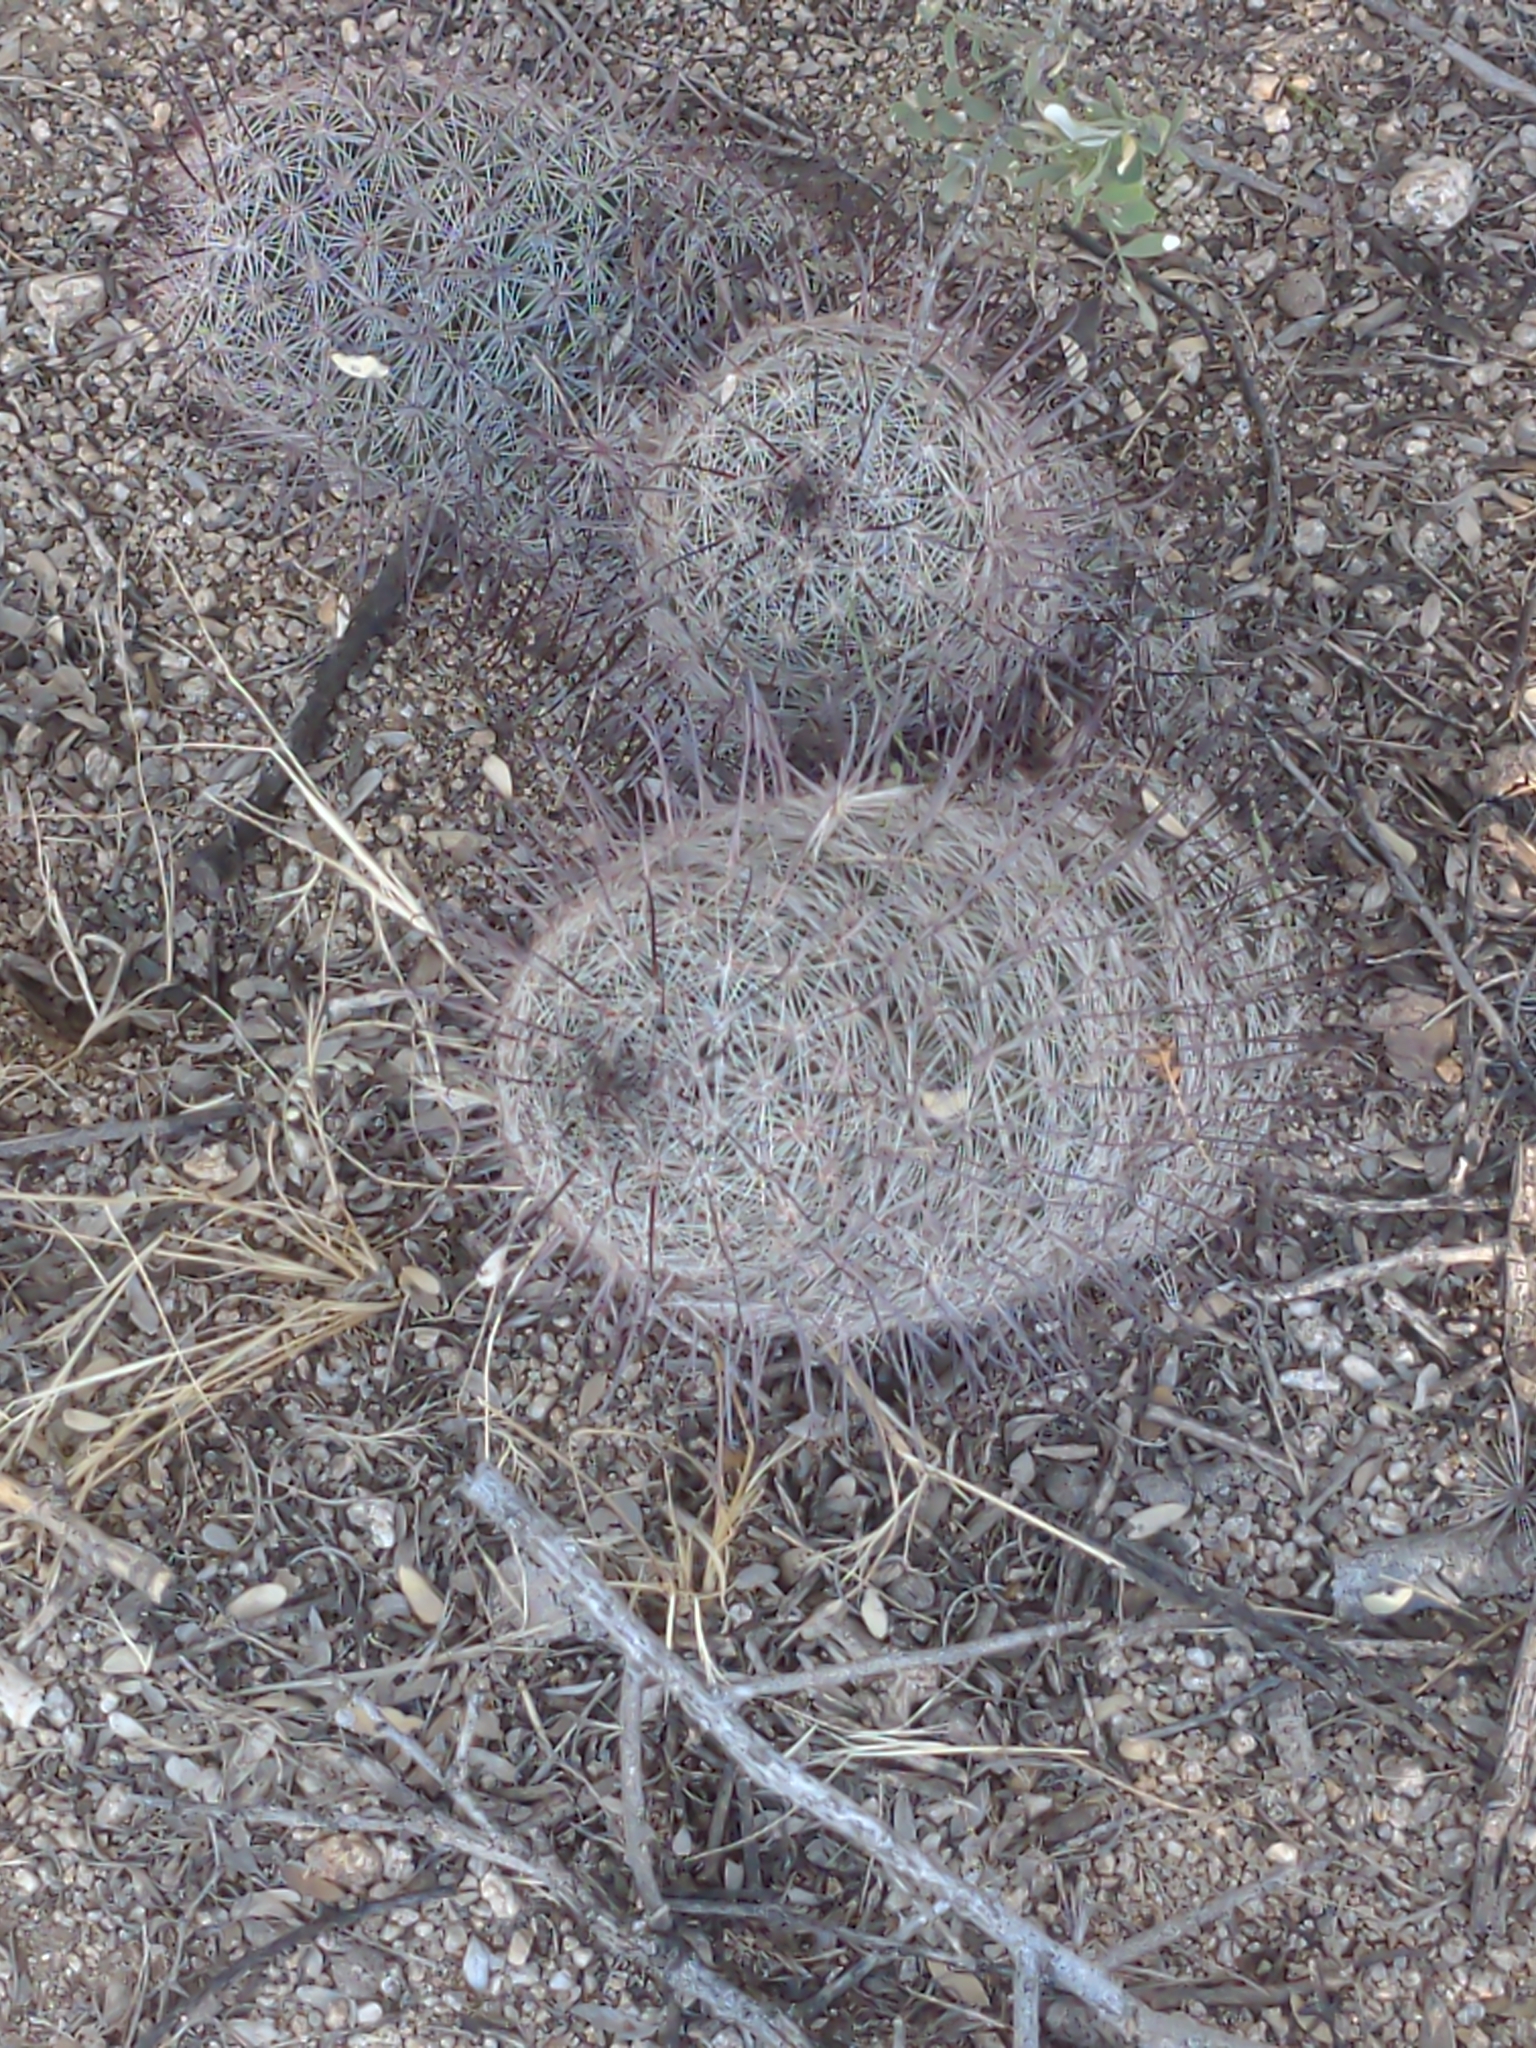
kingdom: Plantae
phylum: Tracheophyta
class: Magnoliopsida
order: Caryophyllales
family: Cactaceae
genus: Cochemiea
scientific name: Cochemiea grahamii
